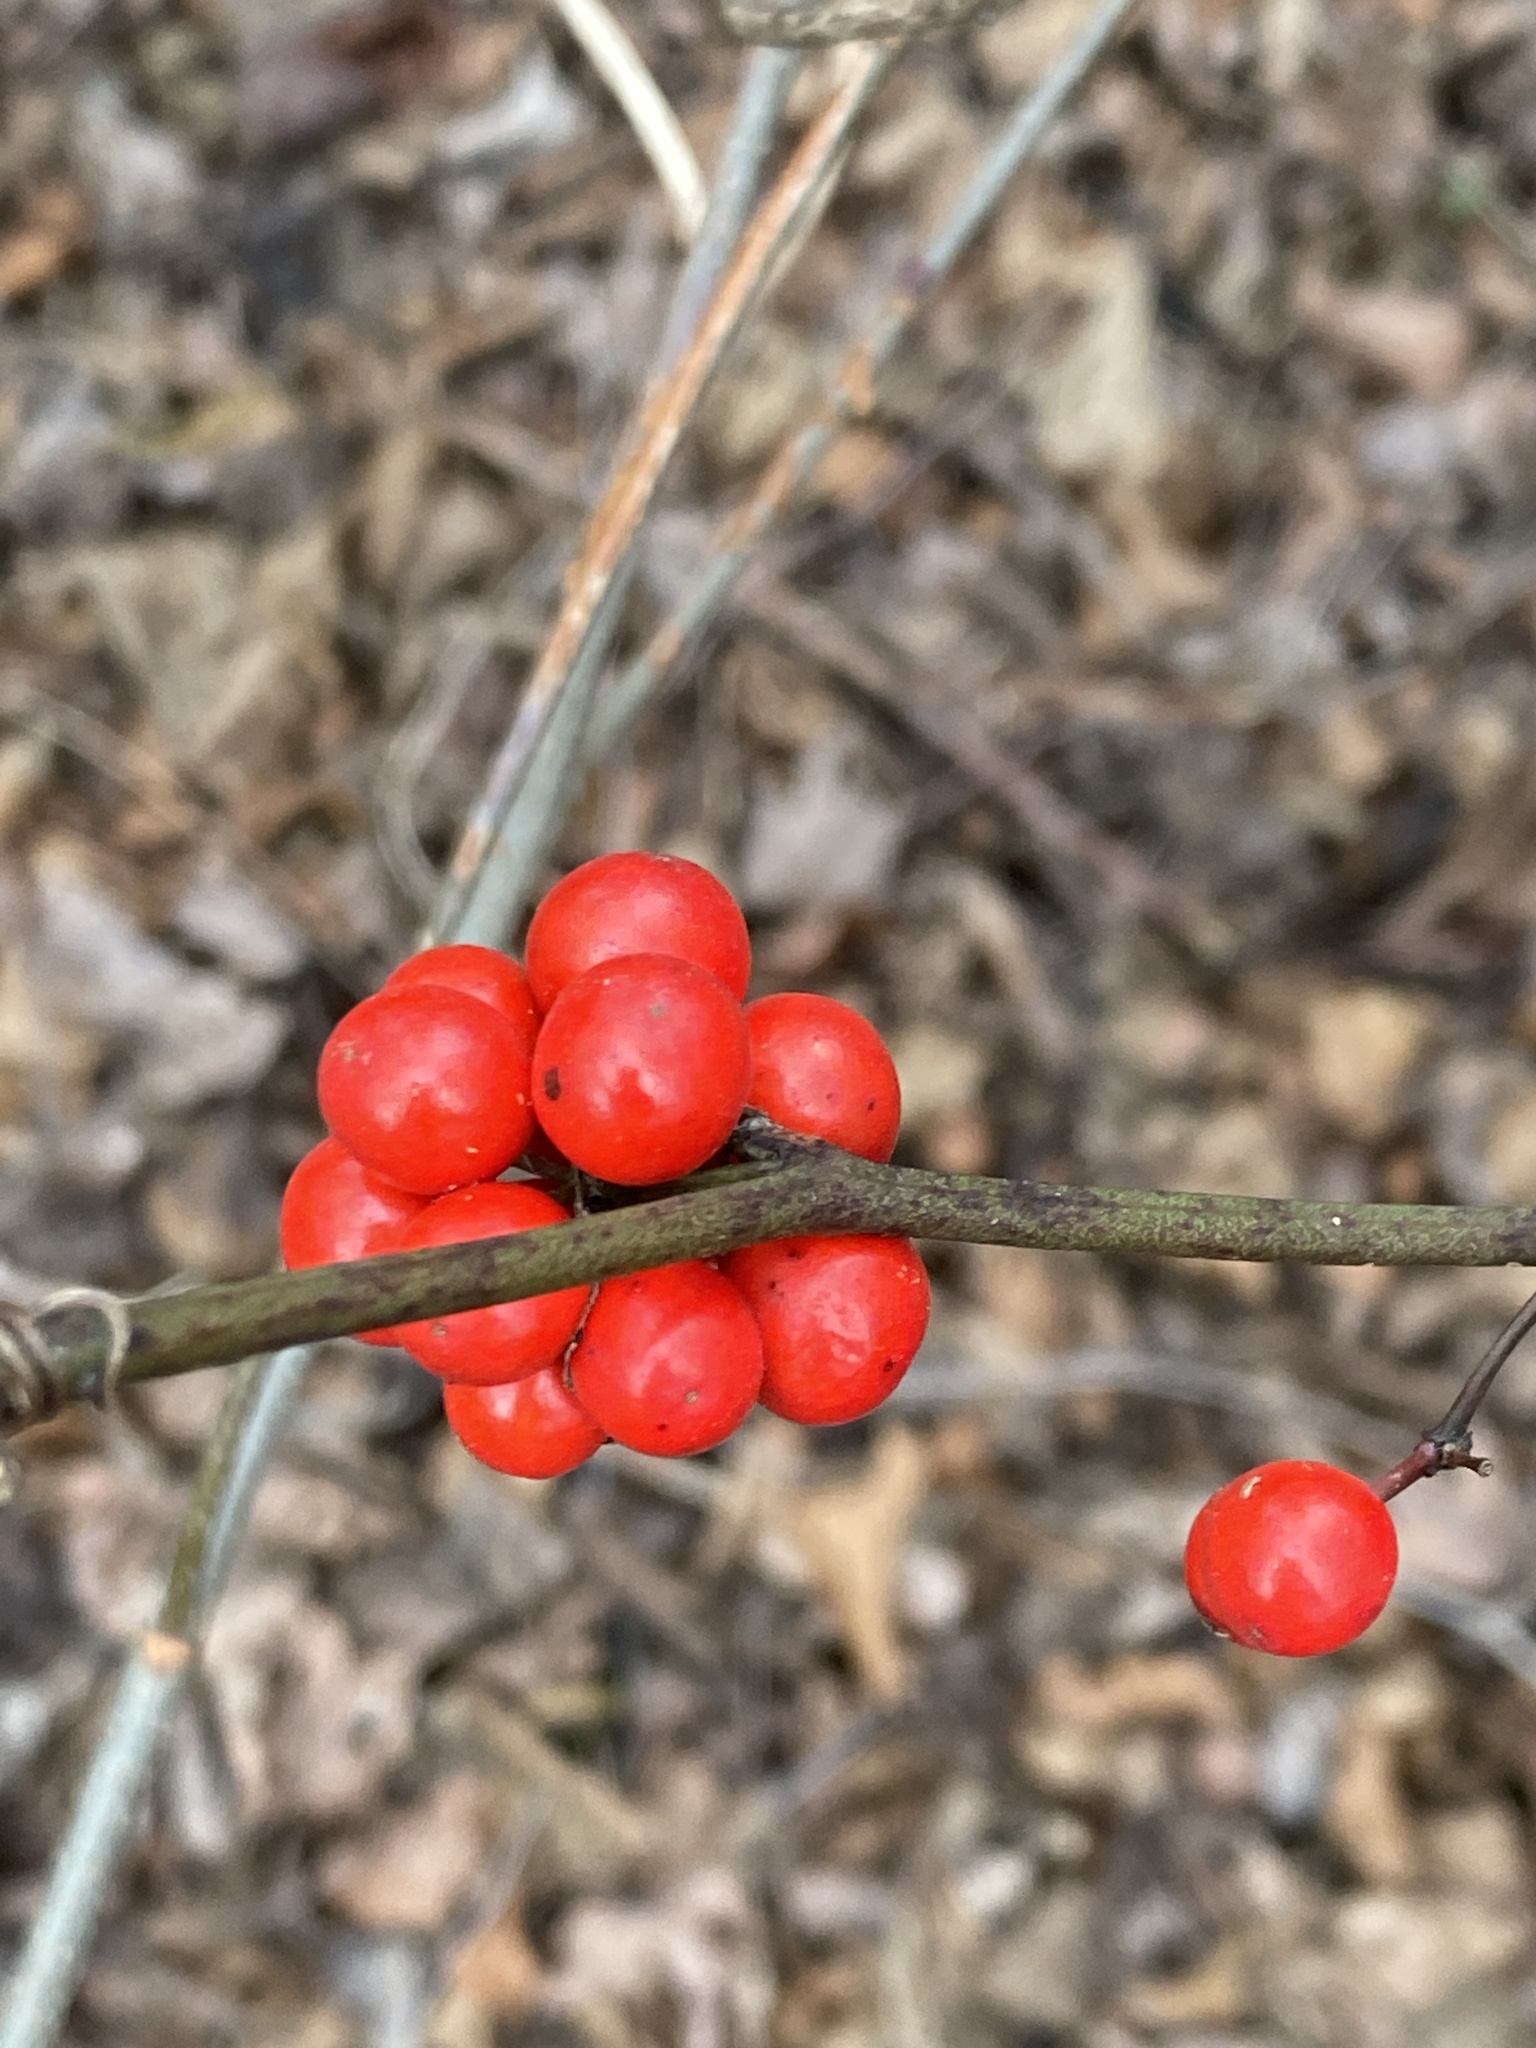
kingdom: Plantae
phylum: Tracheophyta
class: Liliopsida
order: Liliales
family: Smilacaceae
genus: Smilax
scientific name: Smilax walteri
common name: Coral greenbrier
